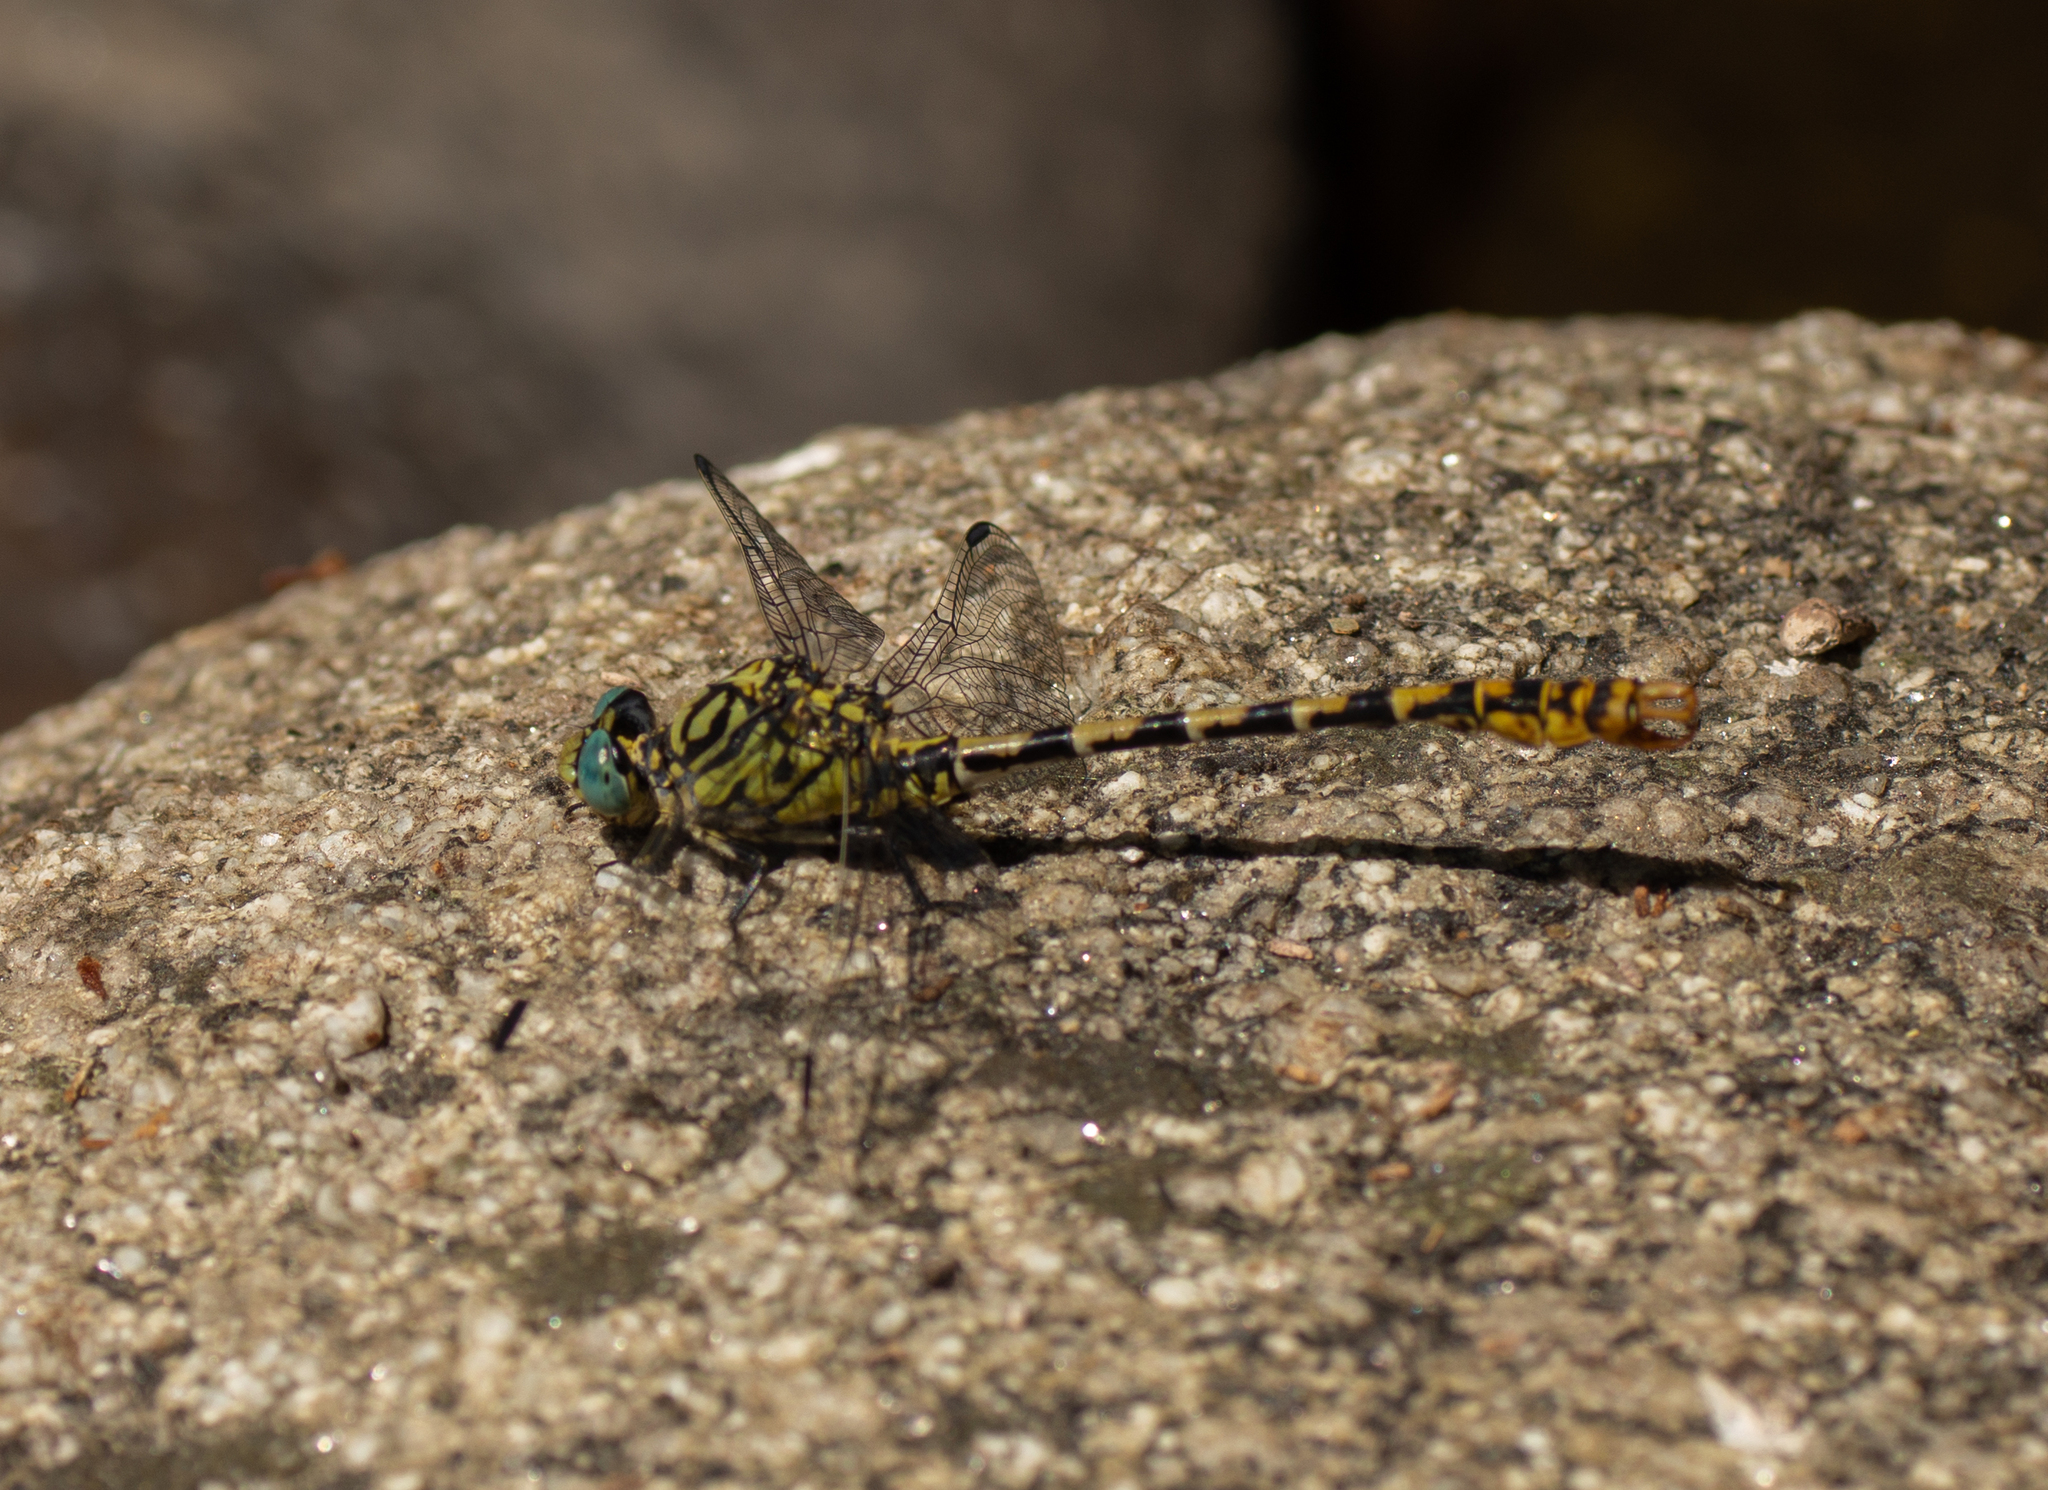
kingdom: Animalia
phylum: Arthropoda
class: Insecta
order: Odonata
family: Gomphidae
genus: Onychogomphus
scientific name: Onychogomphus forcipatus
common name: Small pincertail
